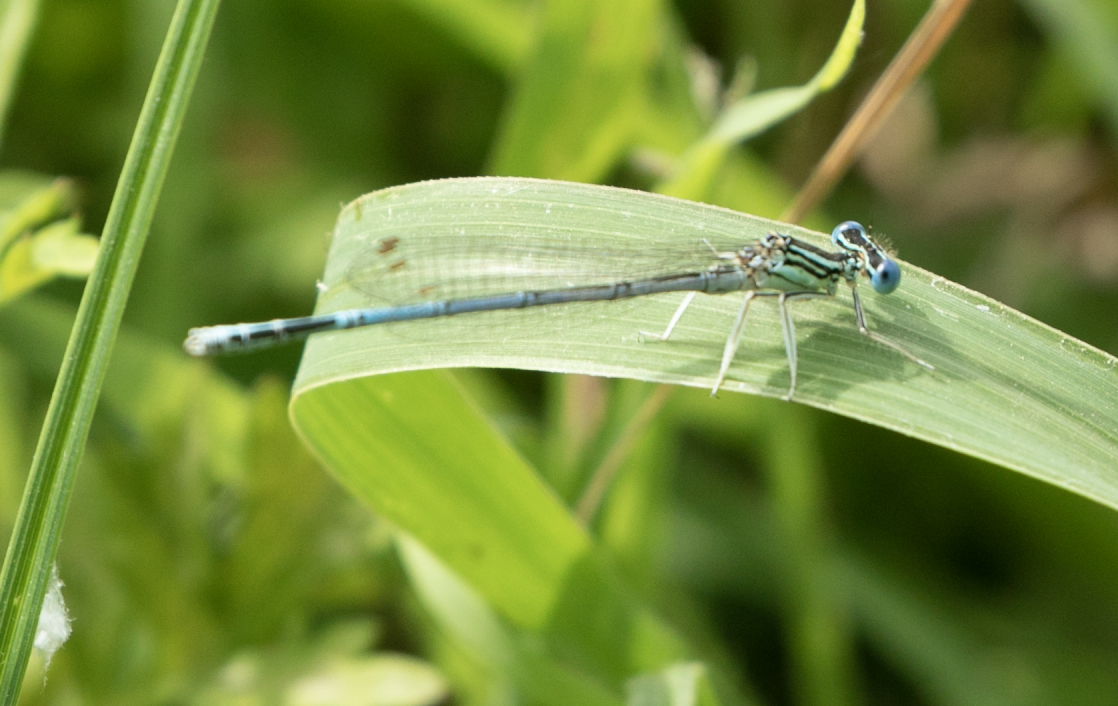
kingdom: Animalia
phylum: Arthropoda
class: Insecta
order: Odonata
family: Platycnemididae
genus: Platycnemis
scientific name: Platycnemis pennipes
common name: White-legged damselfly
